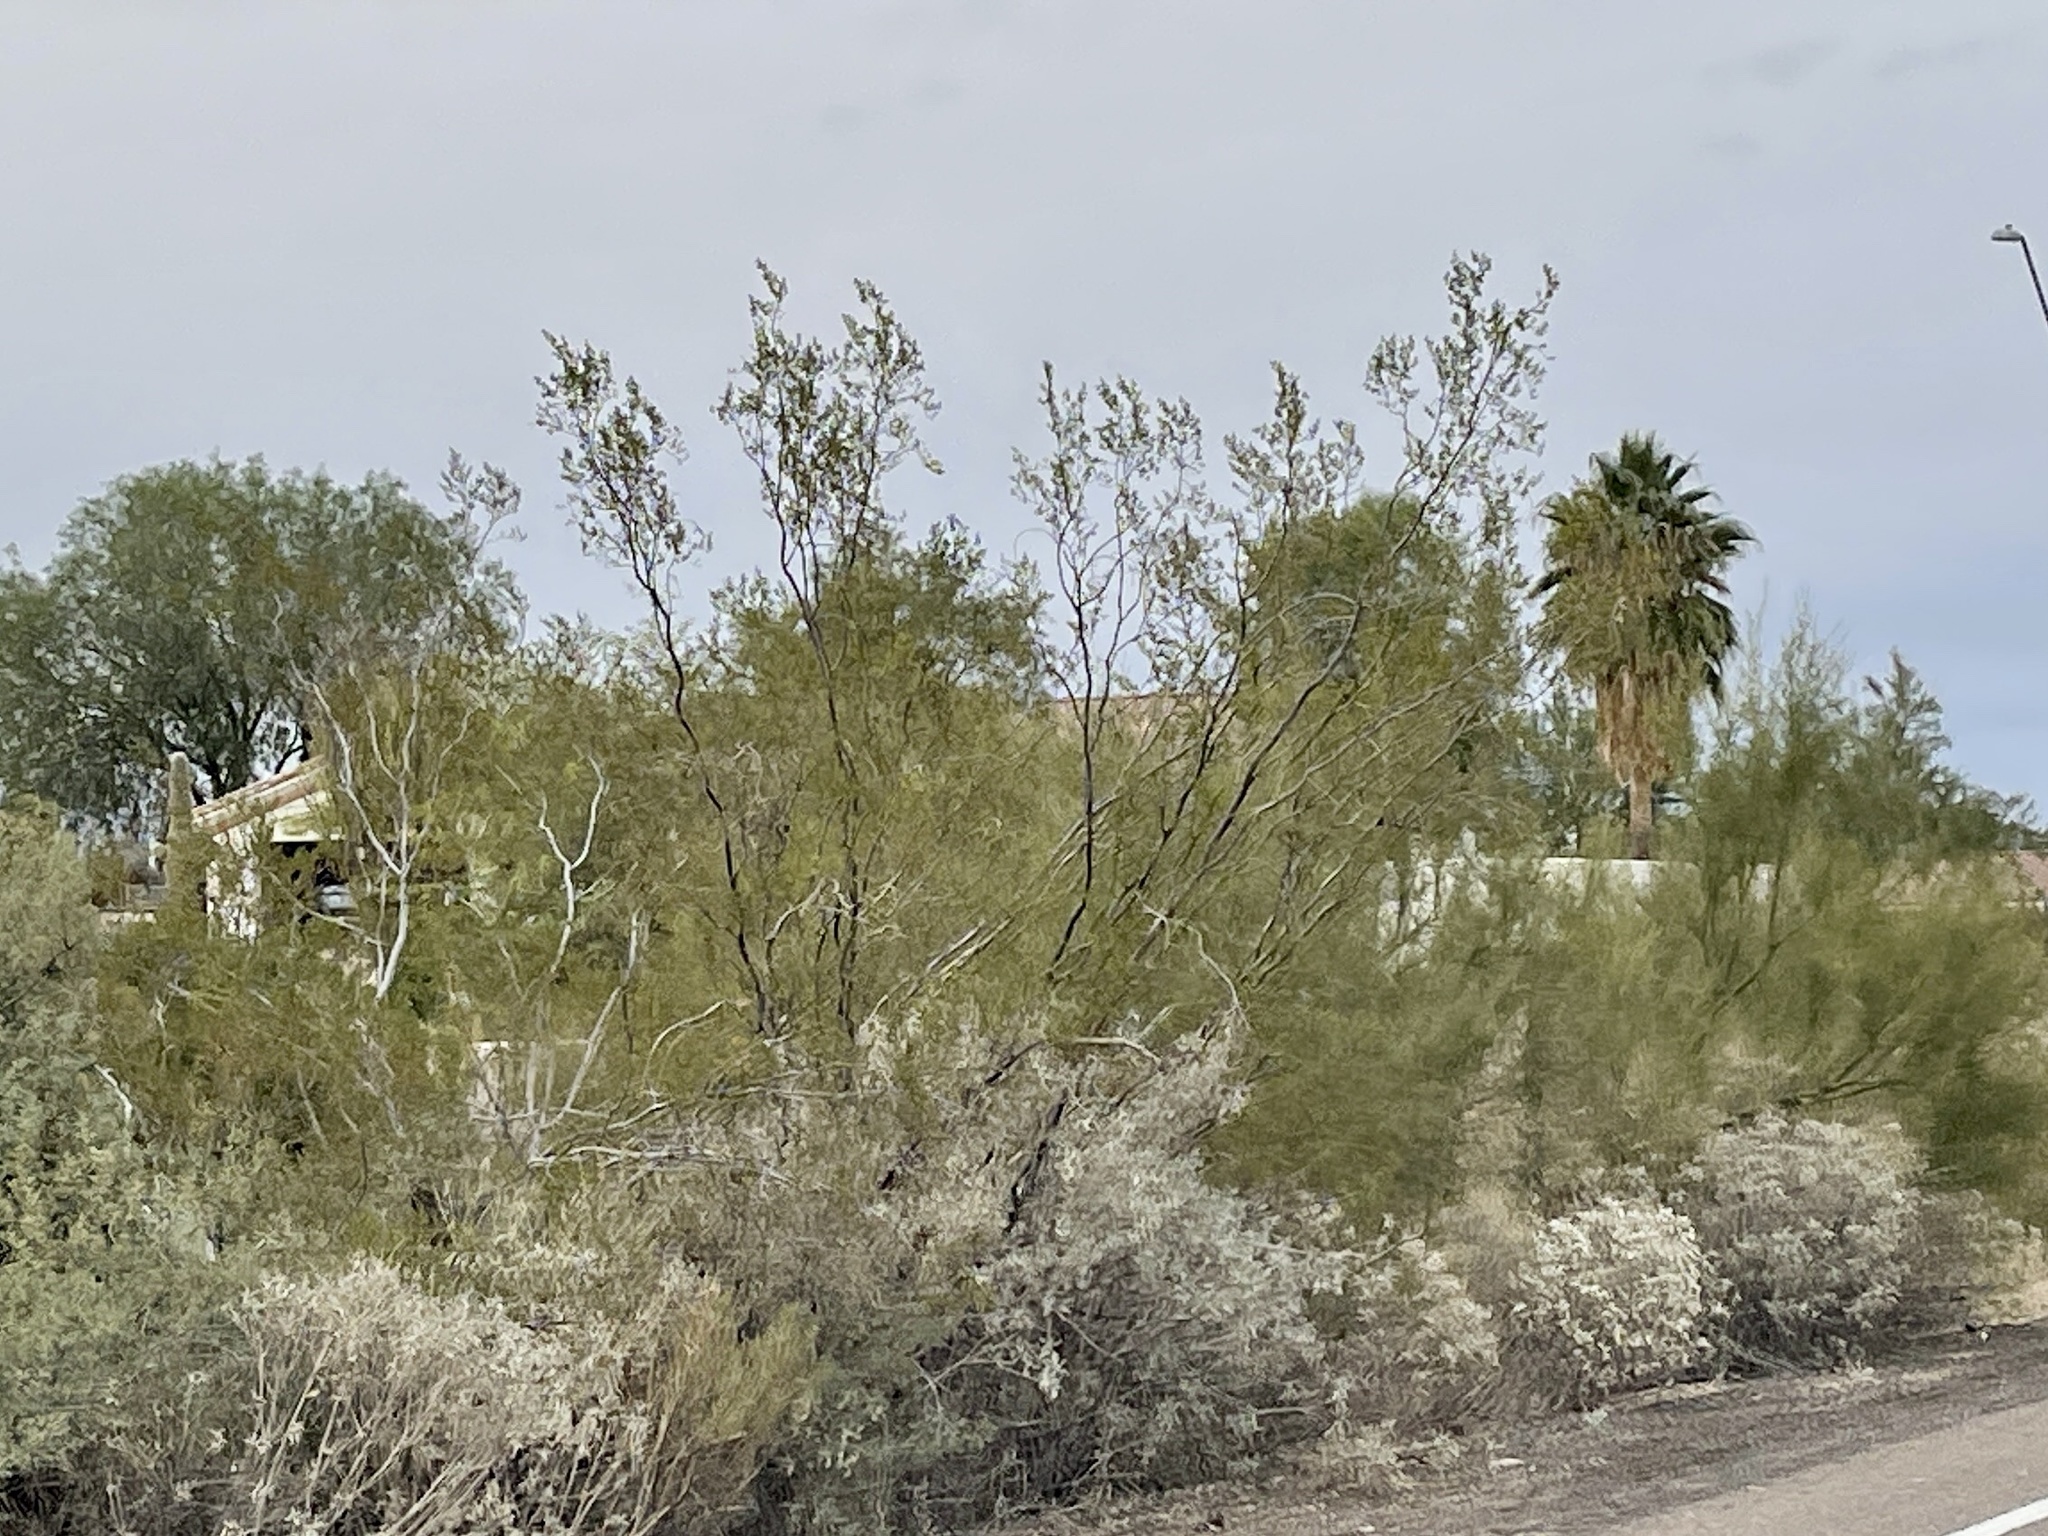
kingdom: Plantae
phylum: Tracheophyta
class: Magnoliopsida
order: Zygophyllales
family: Zygophyllaceae
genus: Larrea
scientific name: Larrea tridentata
